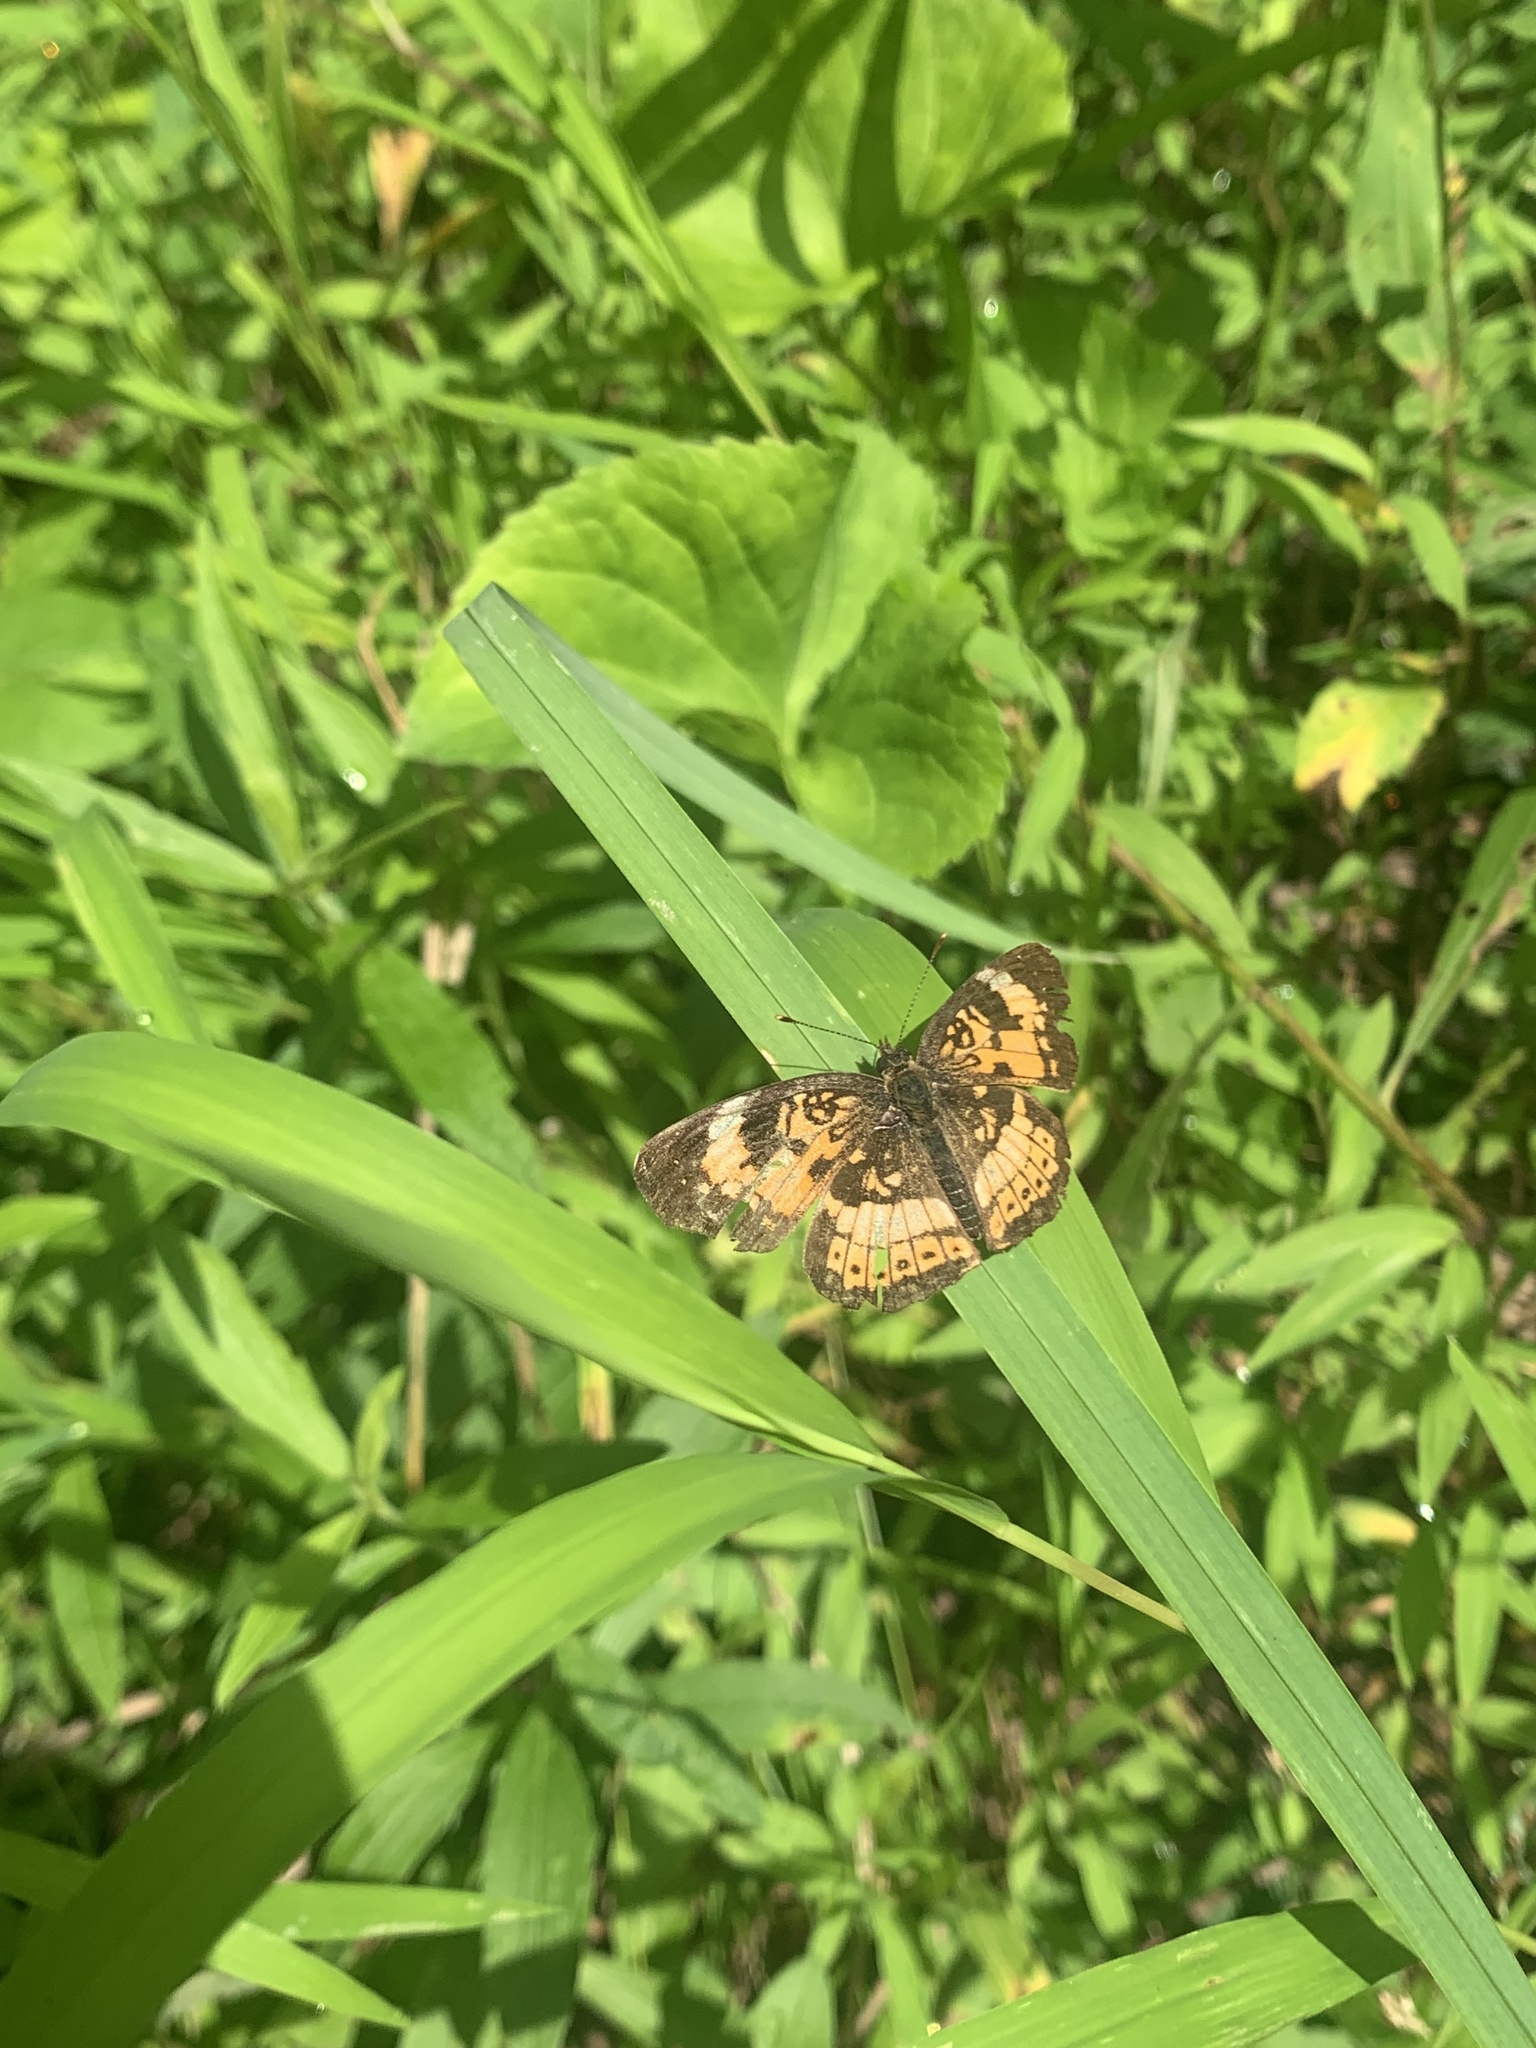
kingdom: Animalia
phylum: Arthropoda
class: Insecta
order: Lepidoptera
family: Nymphalidae
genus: Chlosyne
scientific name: Chlosyne nycteis
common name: Silvery checkerspot
